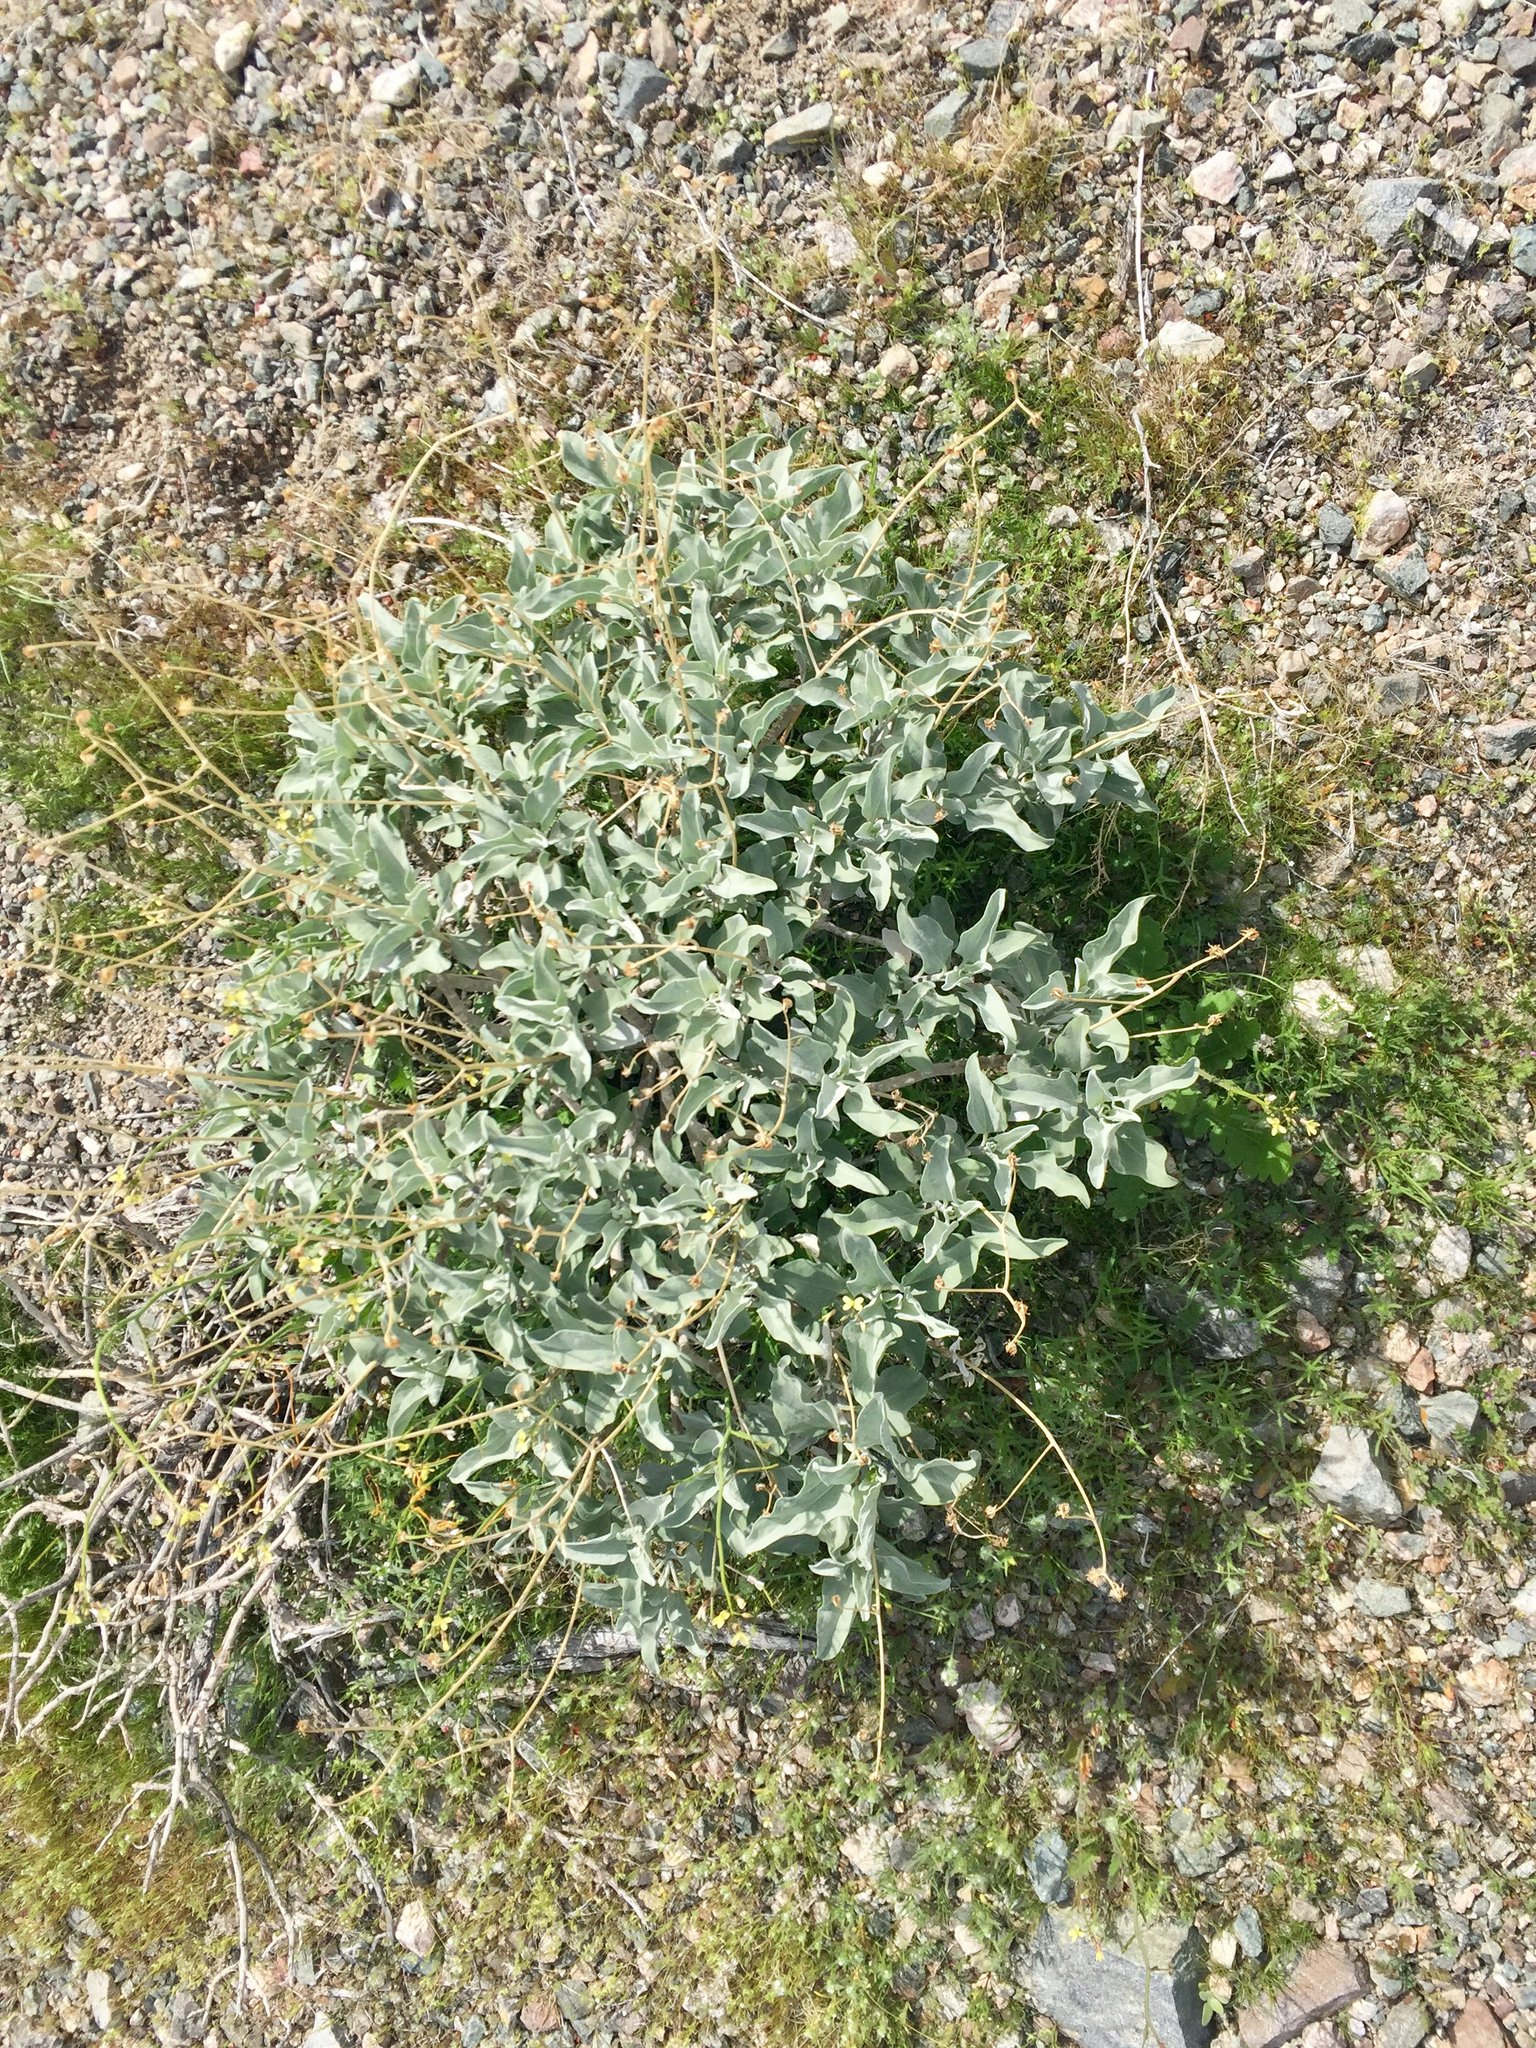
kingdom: Plantae
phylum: Tracheophyta
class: Magnoliopsida
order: Asterales
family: Asteraceae
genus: Encelia
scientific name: Encelia farinosa
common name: Brittlebush
